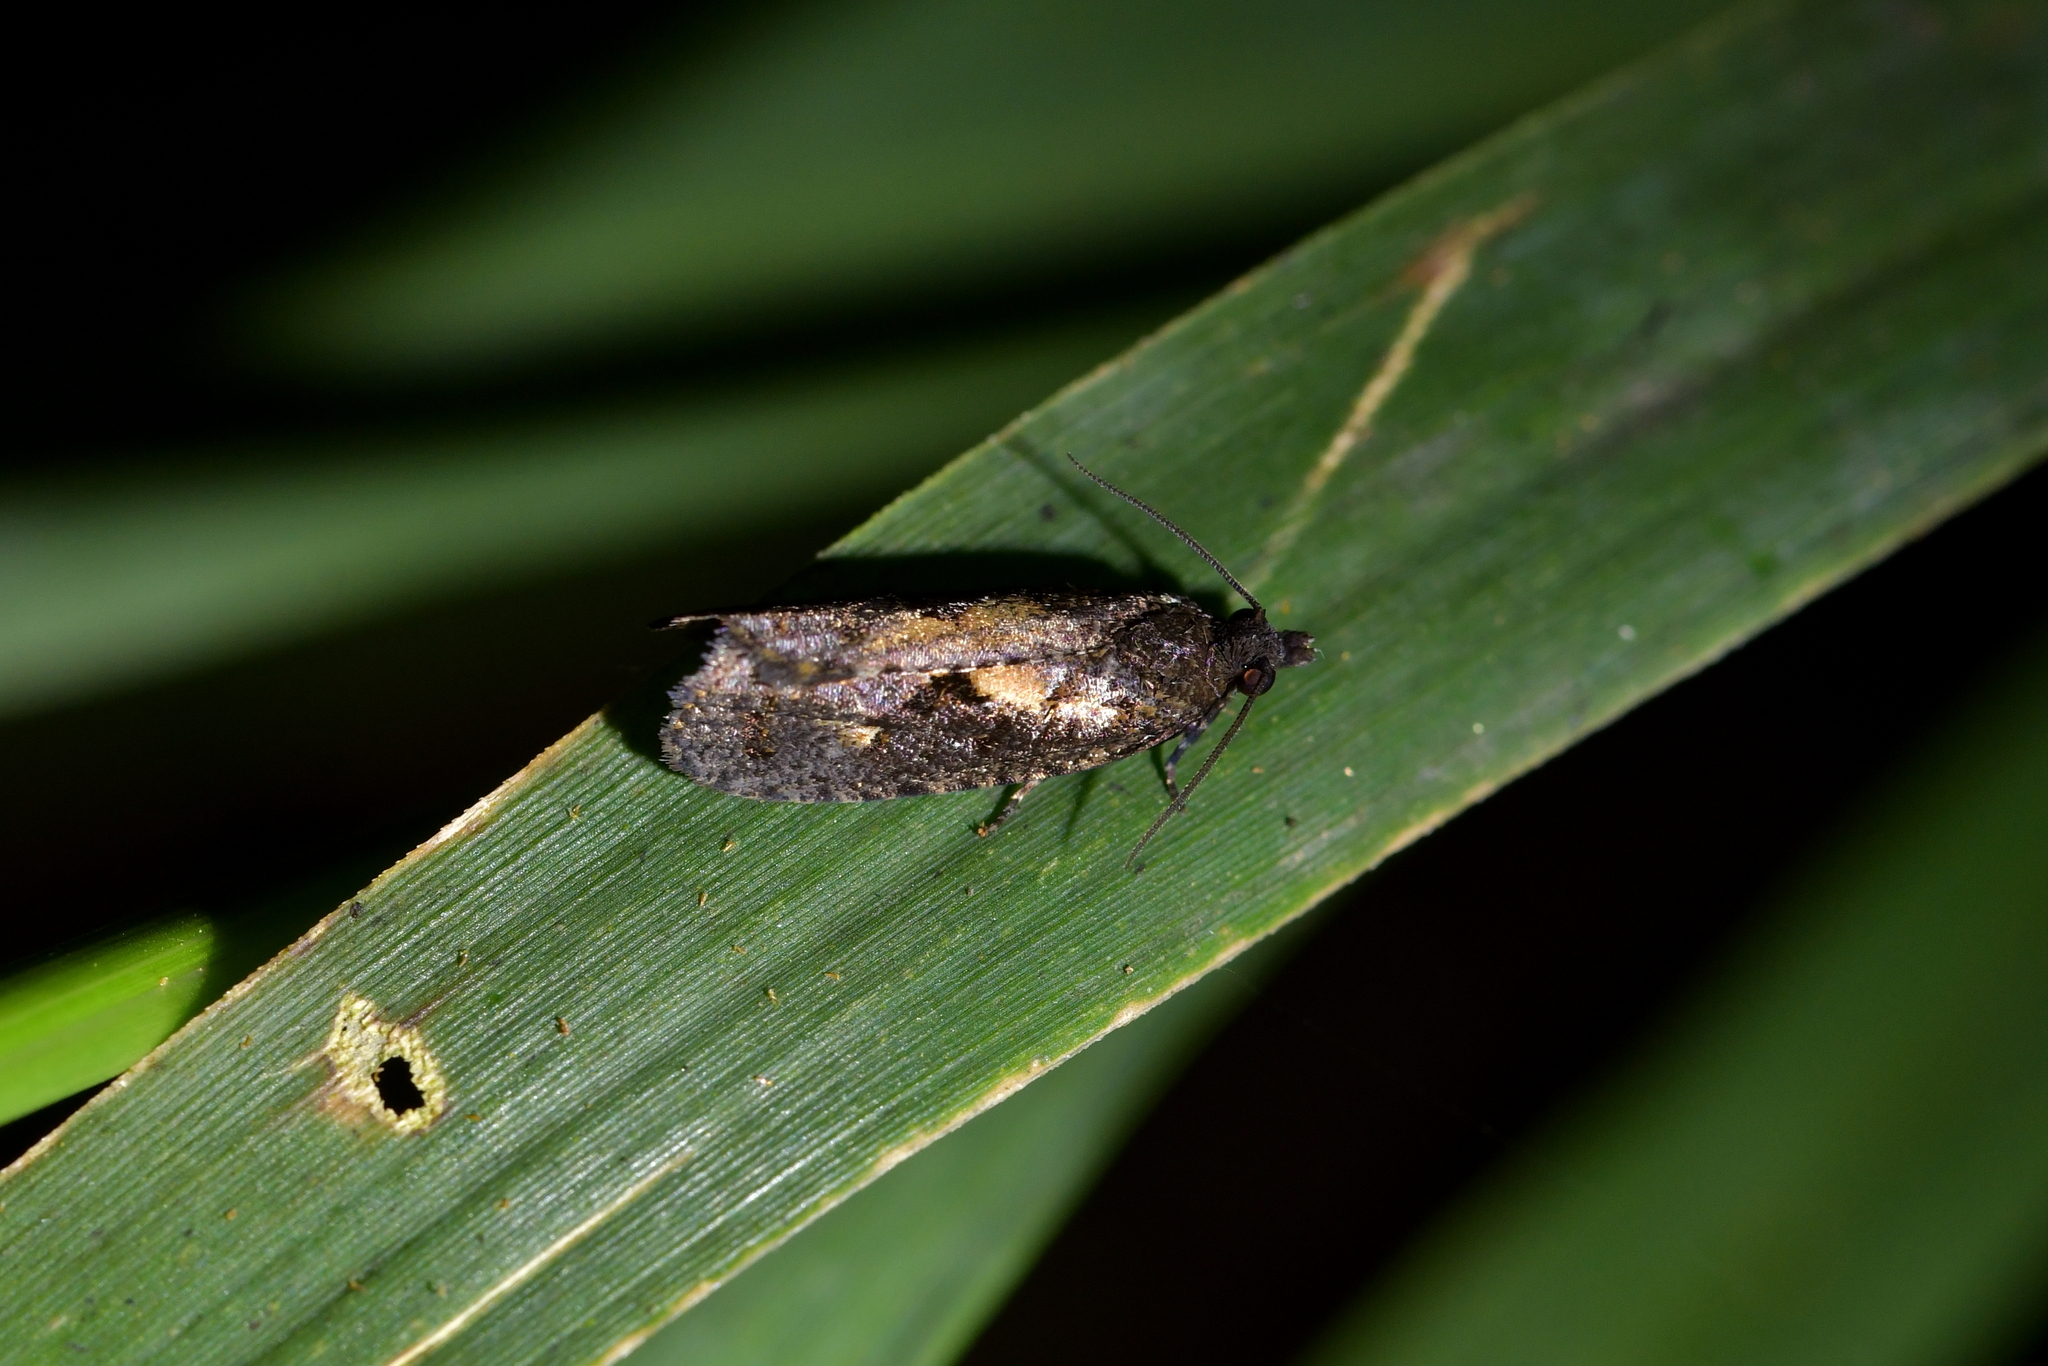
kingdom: Animalia
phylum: Arthropoda
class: Insecta
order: Lepidoptera
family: Tortricidae
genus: Cryptaspasma
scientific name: Cryptaspasma querula
